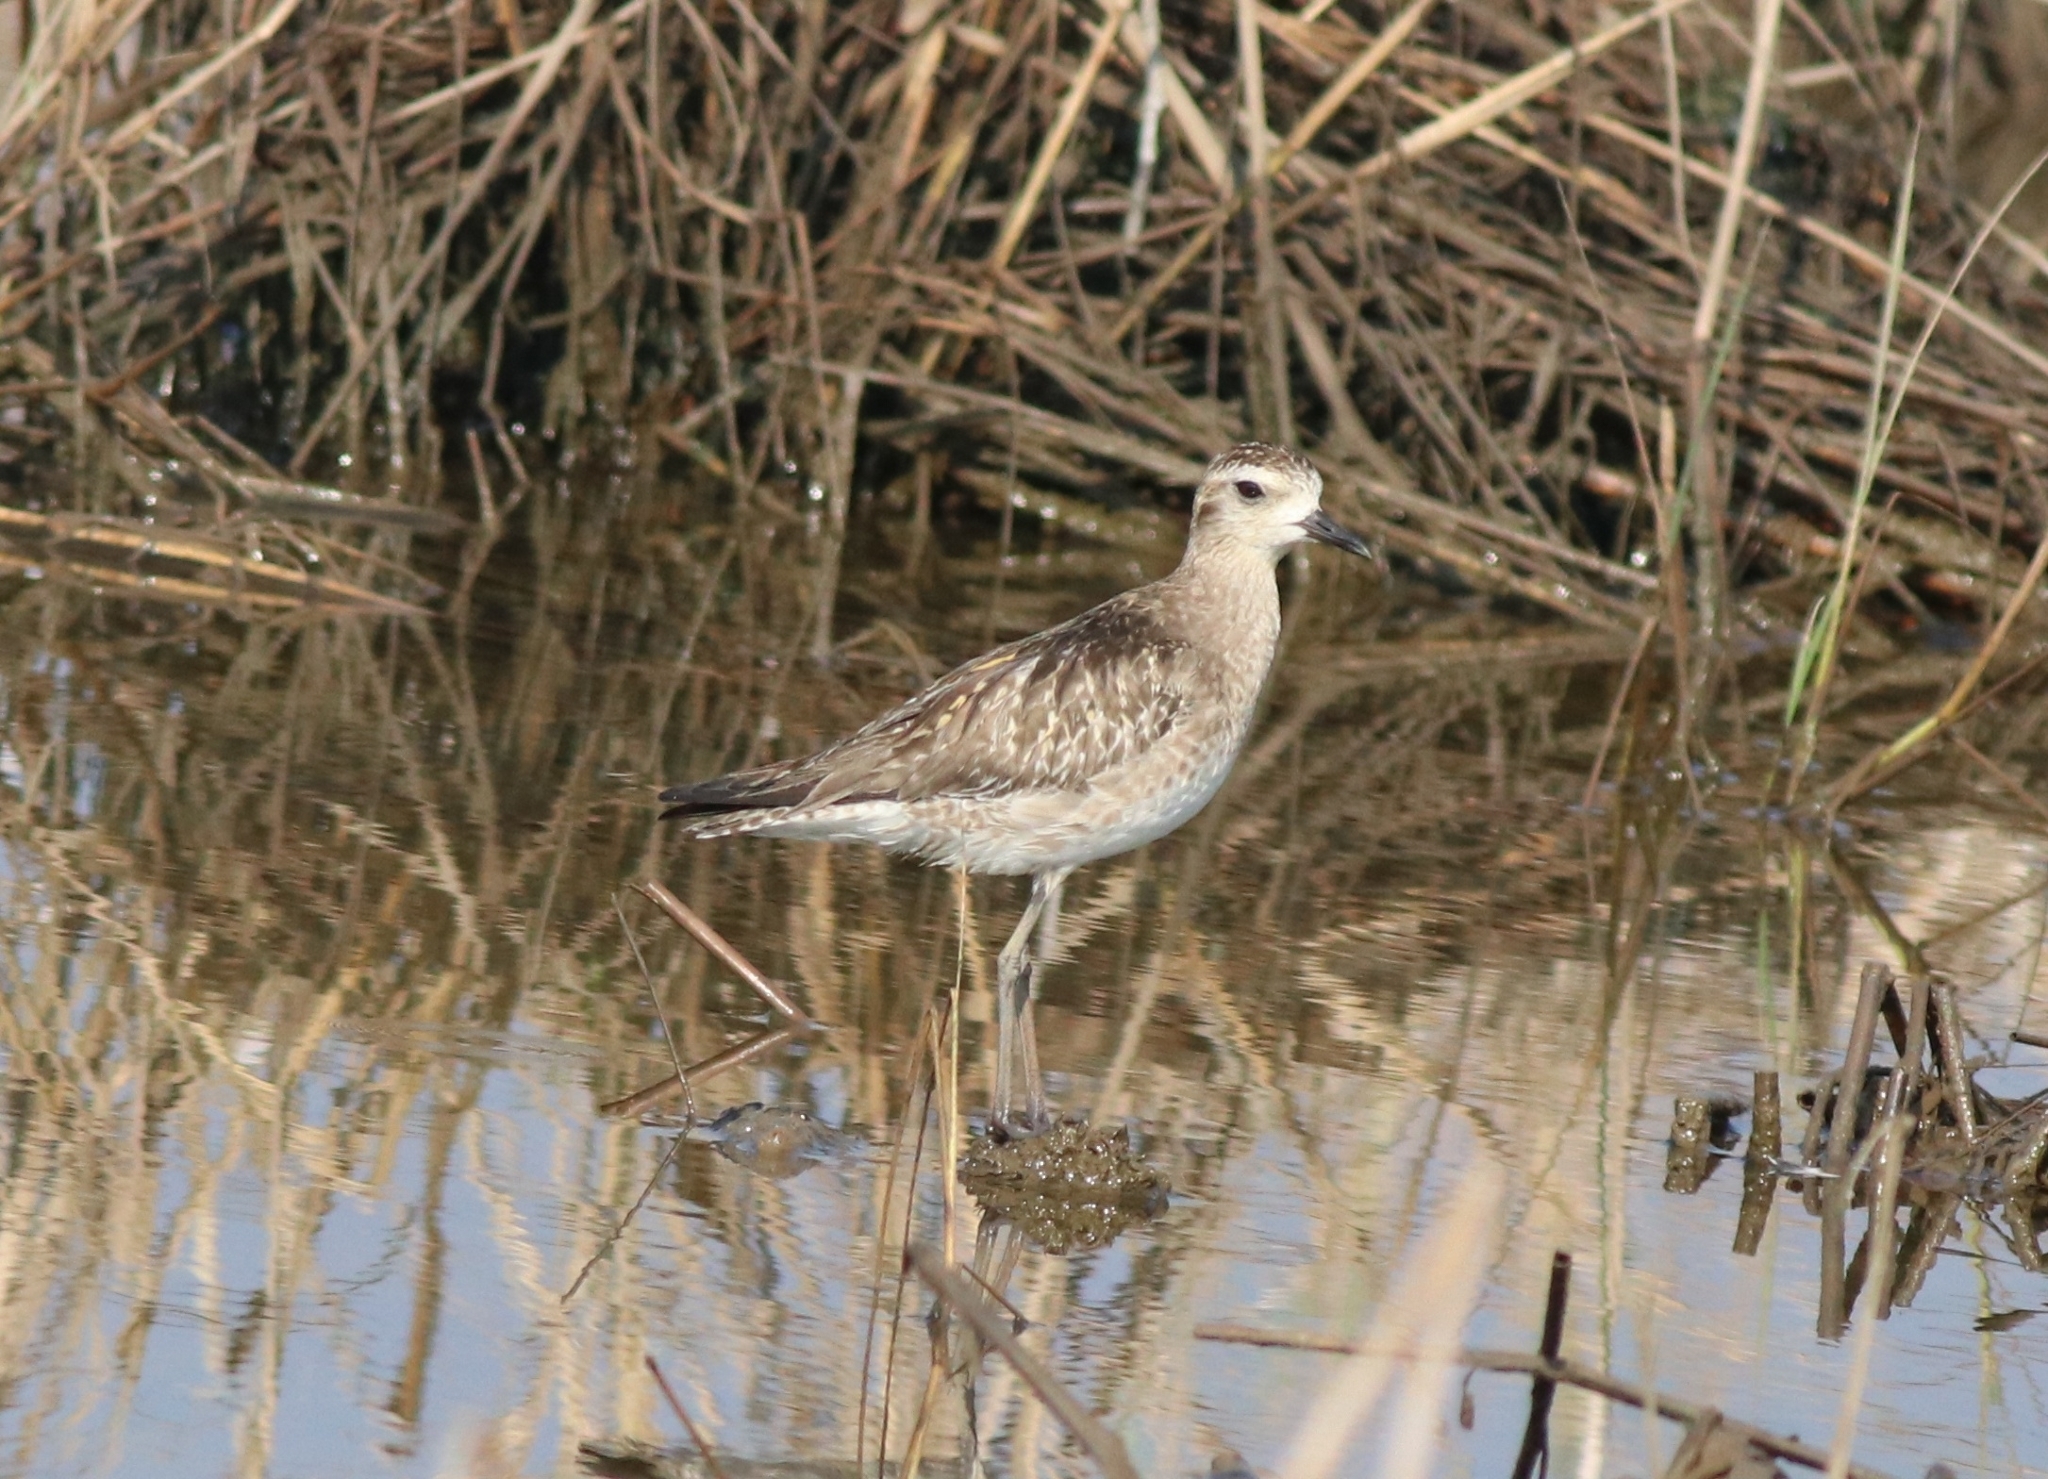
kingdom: Animalia
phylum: Chordata
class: Aves
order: Charadriiformes
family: Charadriidae
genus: Pluvialis
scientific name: Pluvialis fulva
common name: Pacific golden plover
